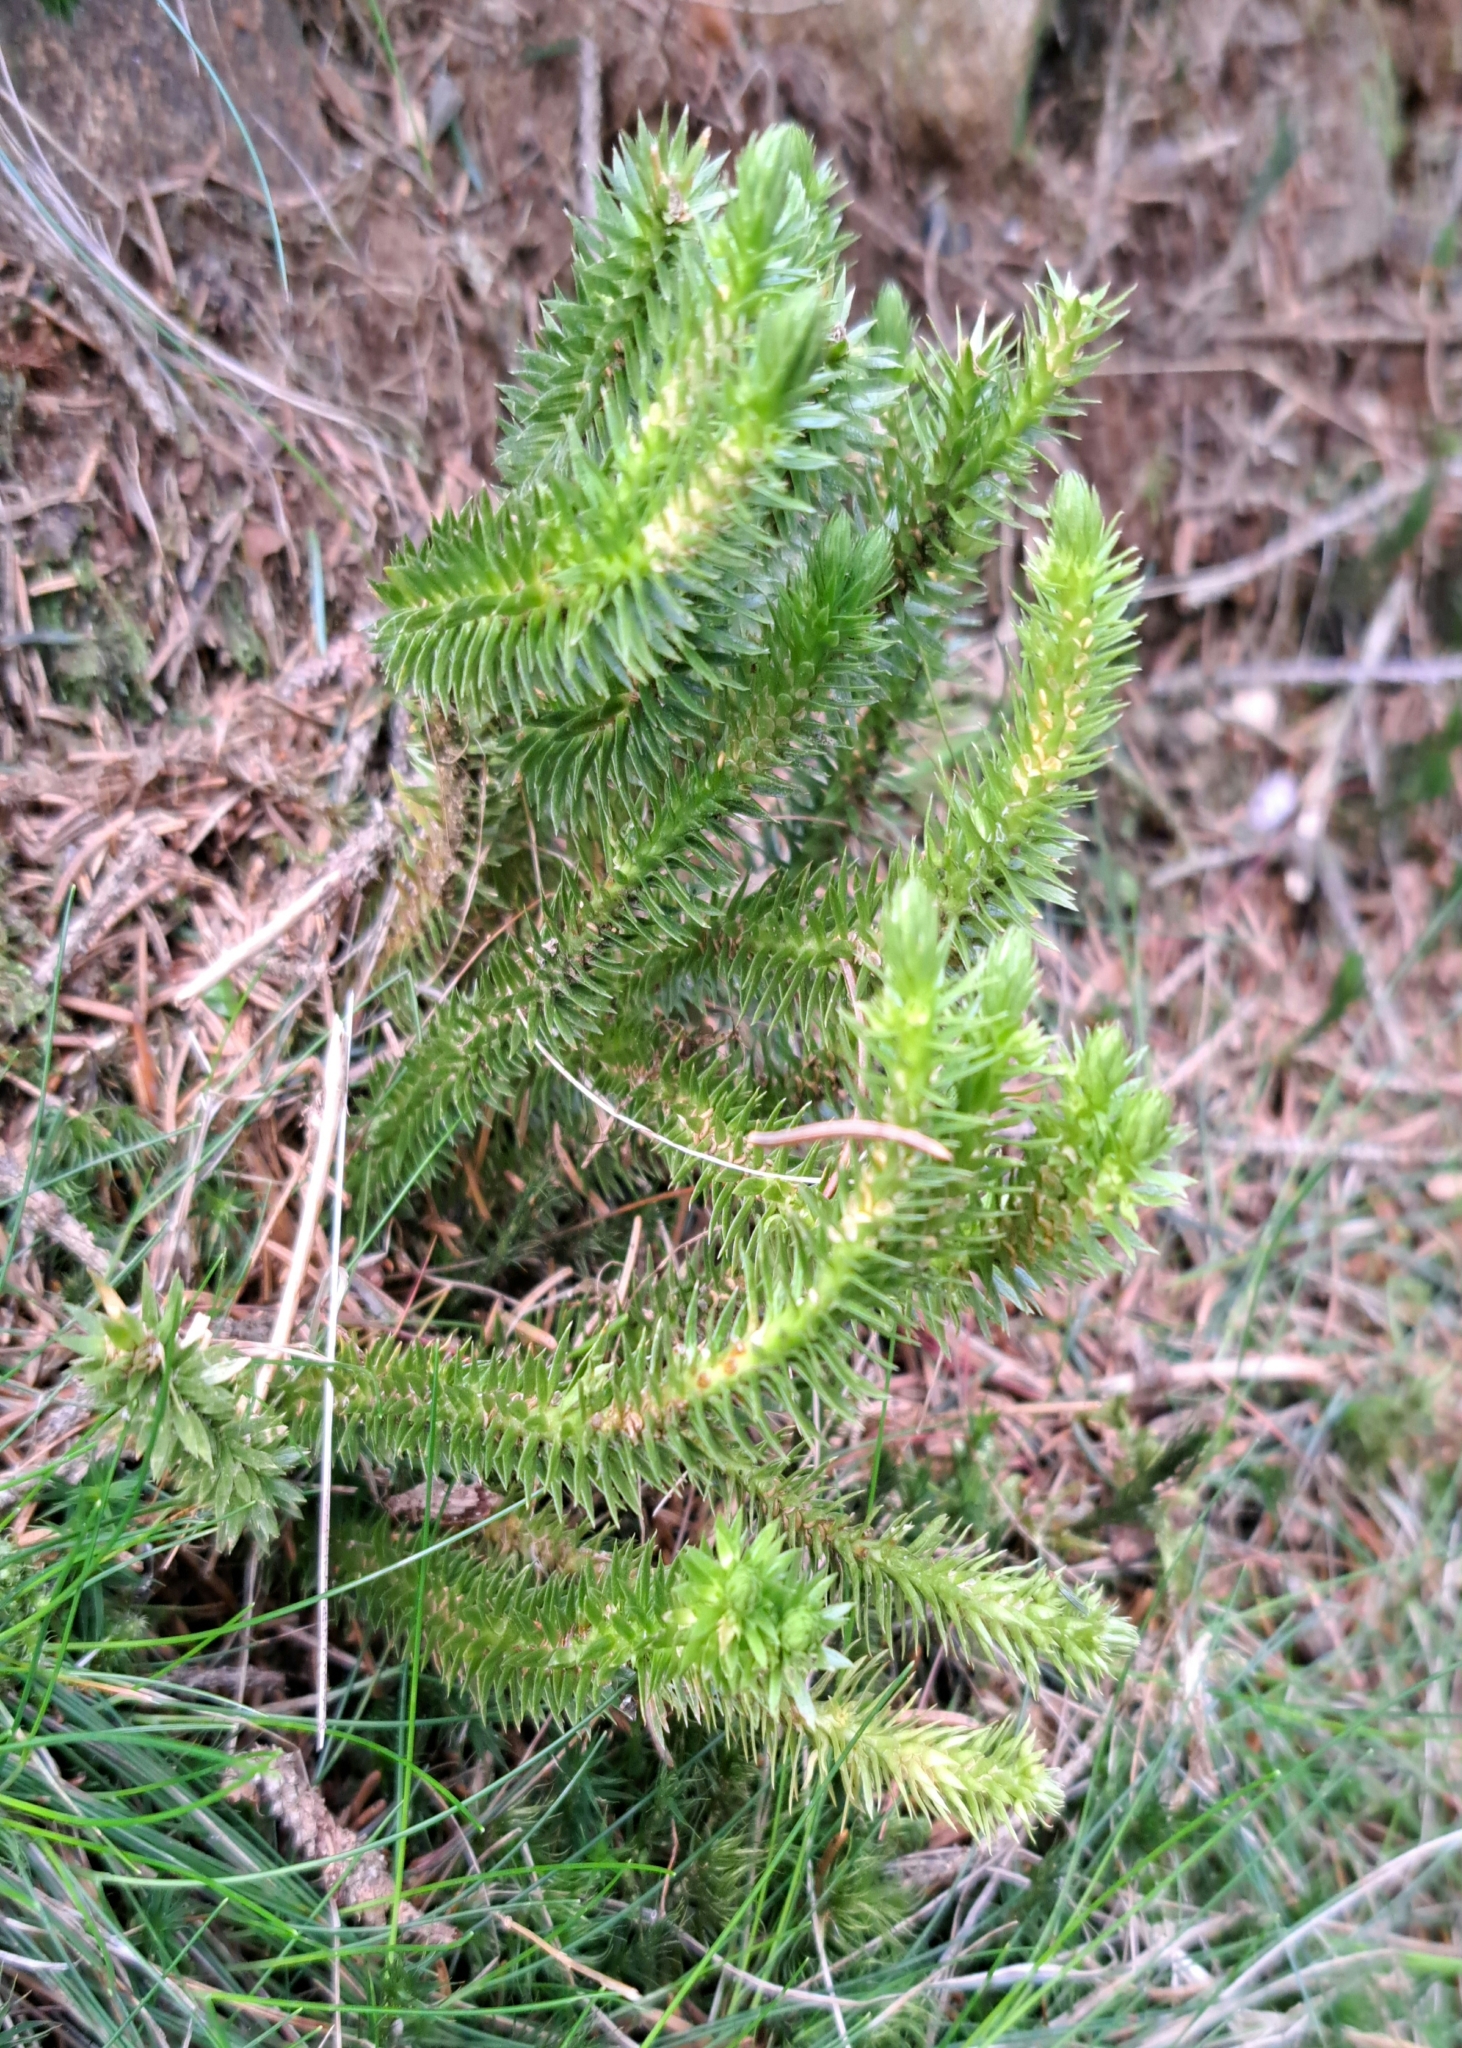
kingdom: Plantae
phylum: Tracheophyta
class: Lycopodiopsida
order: Lycopodiales
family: Lycopodiaceae
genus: Huperzia
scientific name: Huperzia selago
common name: Northern firmoss
